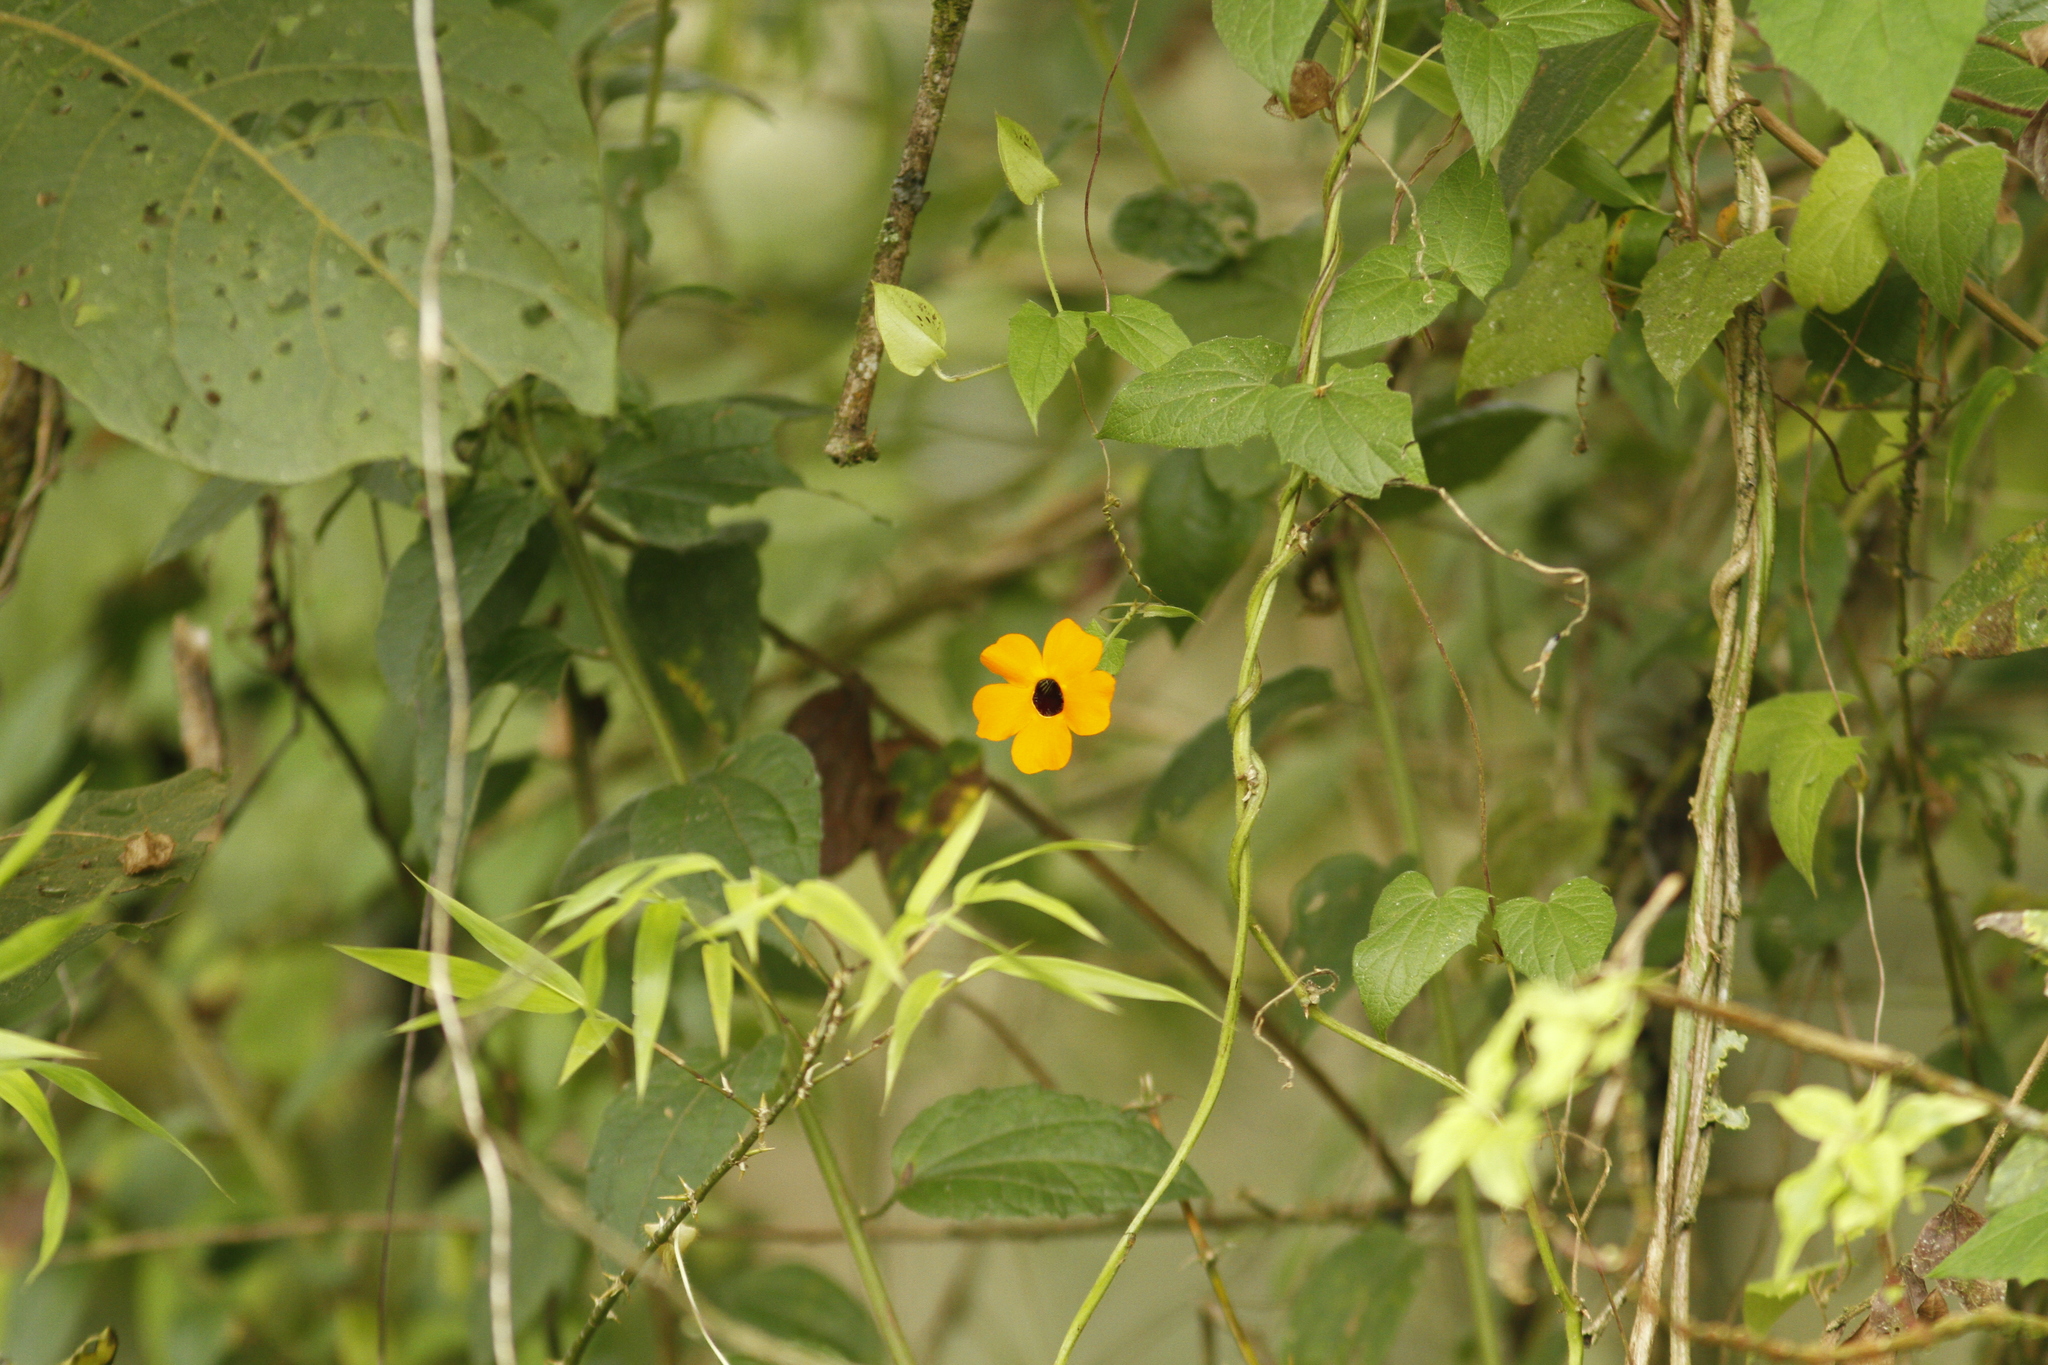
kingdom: Plantae
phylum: Tracheophyta
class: Magnoliopsida
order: Lamiales
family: Acanthaceae
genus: Thunbergia
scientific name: Thunbergia alata
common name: Blackeyed susan vine
